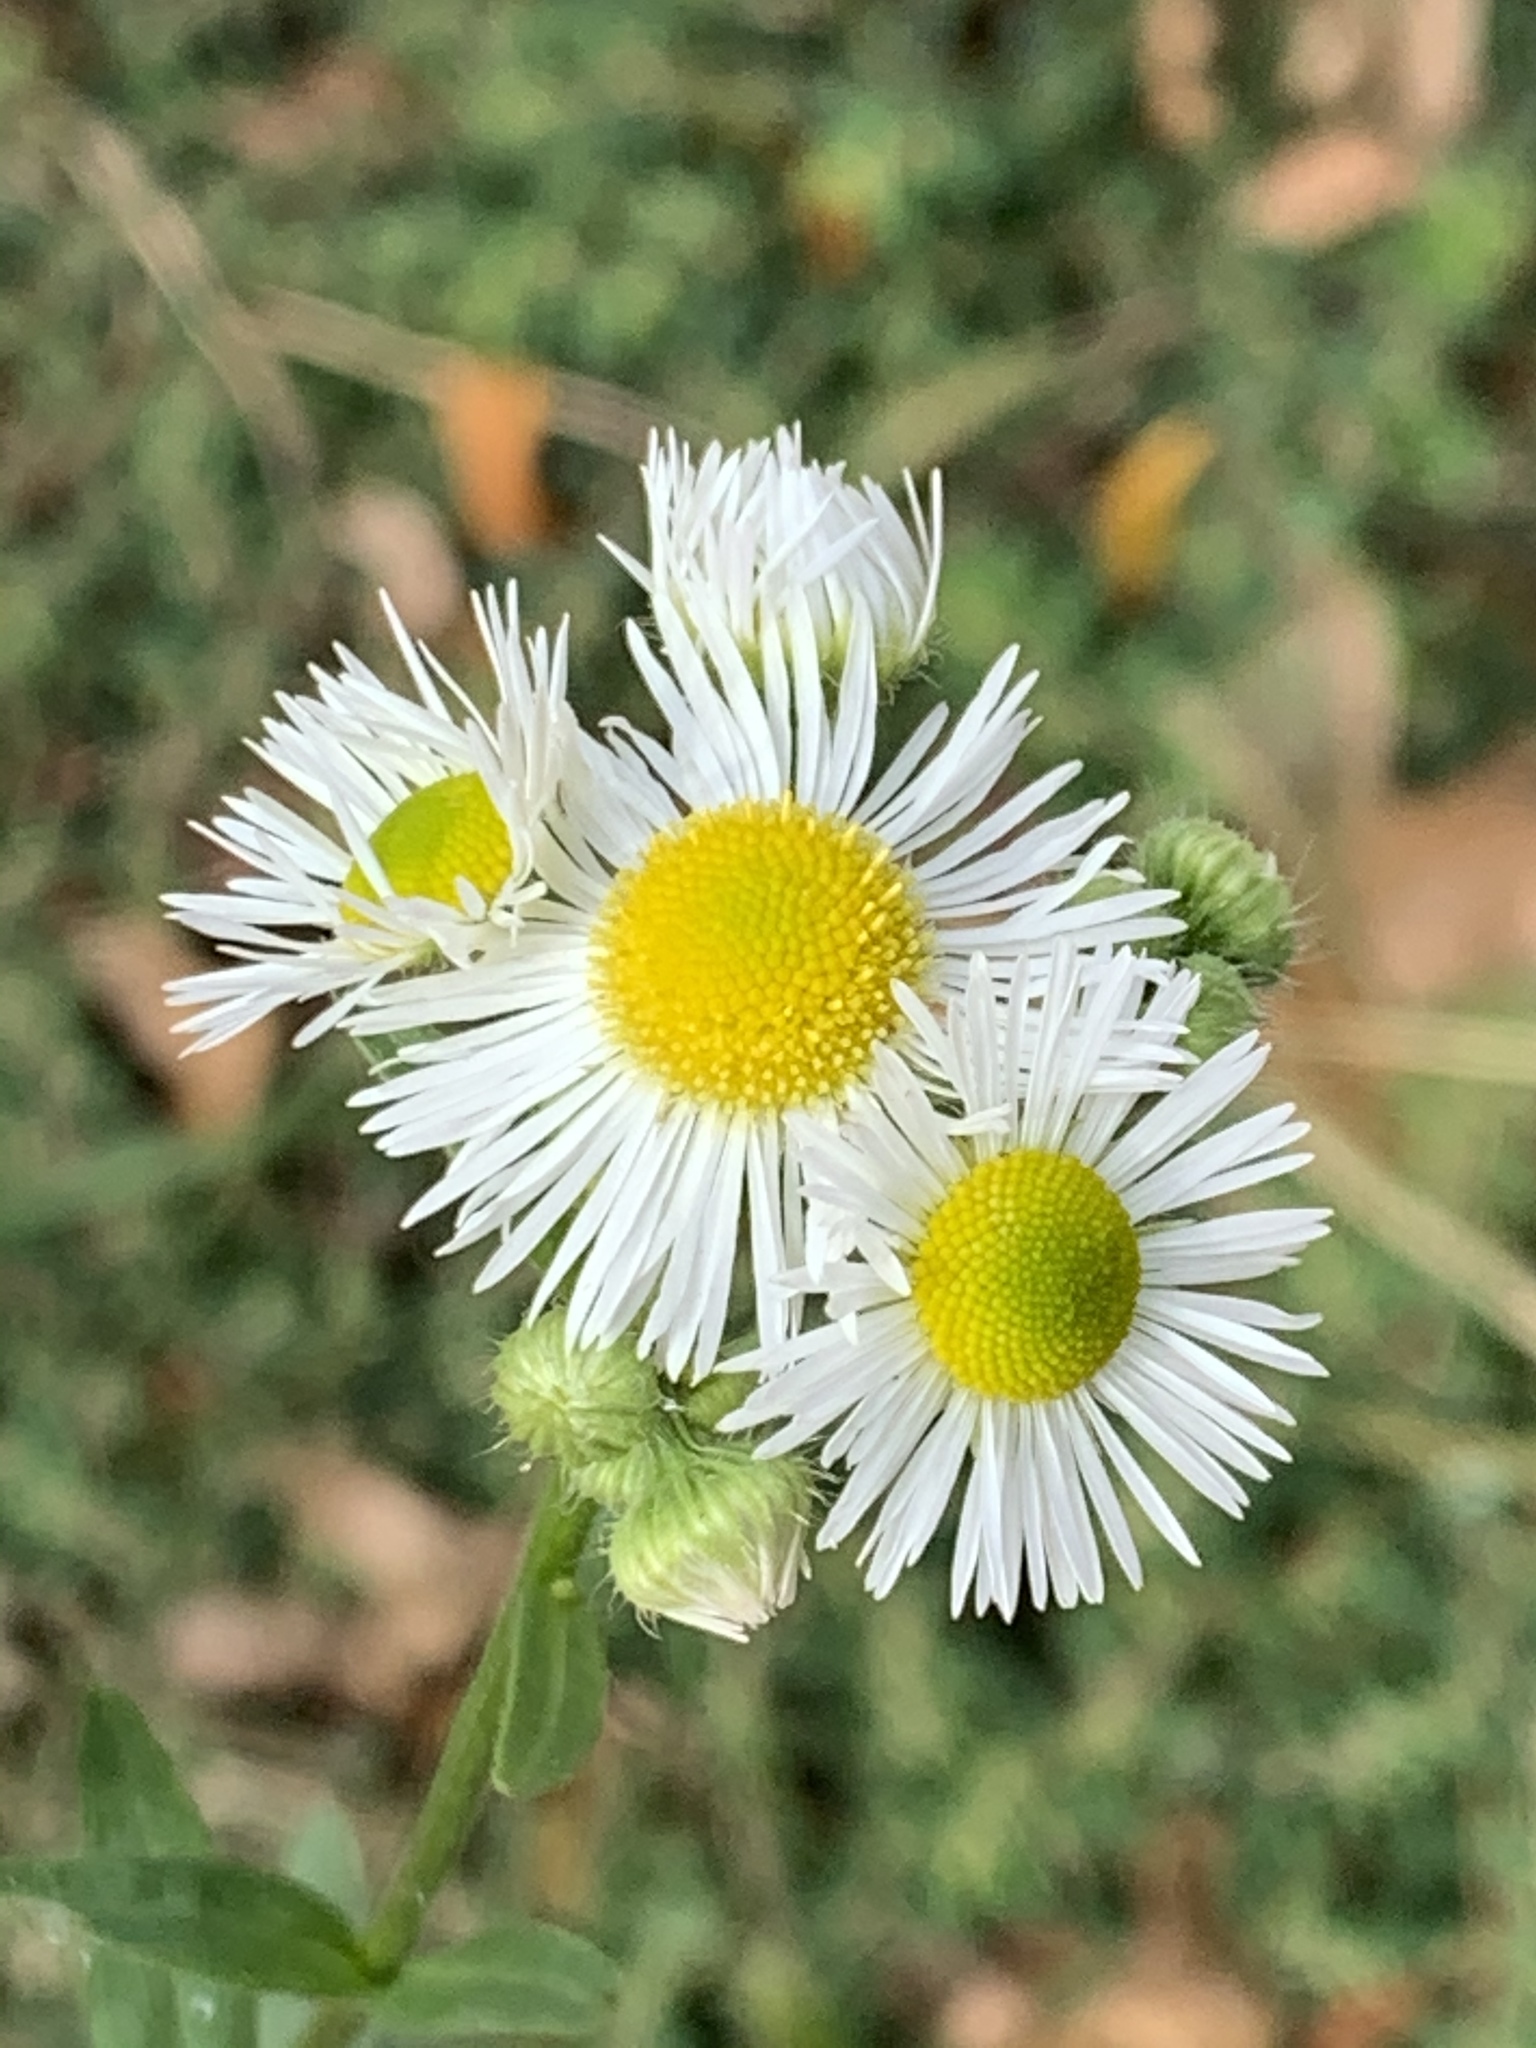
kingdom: Plantae
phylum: Tracheophyta
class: Magnoliopsida
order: Asterales
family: Asteraceae
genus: Erigeron
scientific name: Erigeron annuus
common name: Tall fleabane
